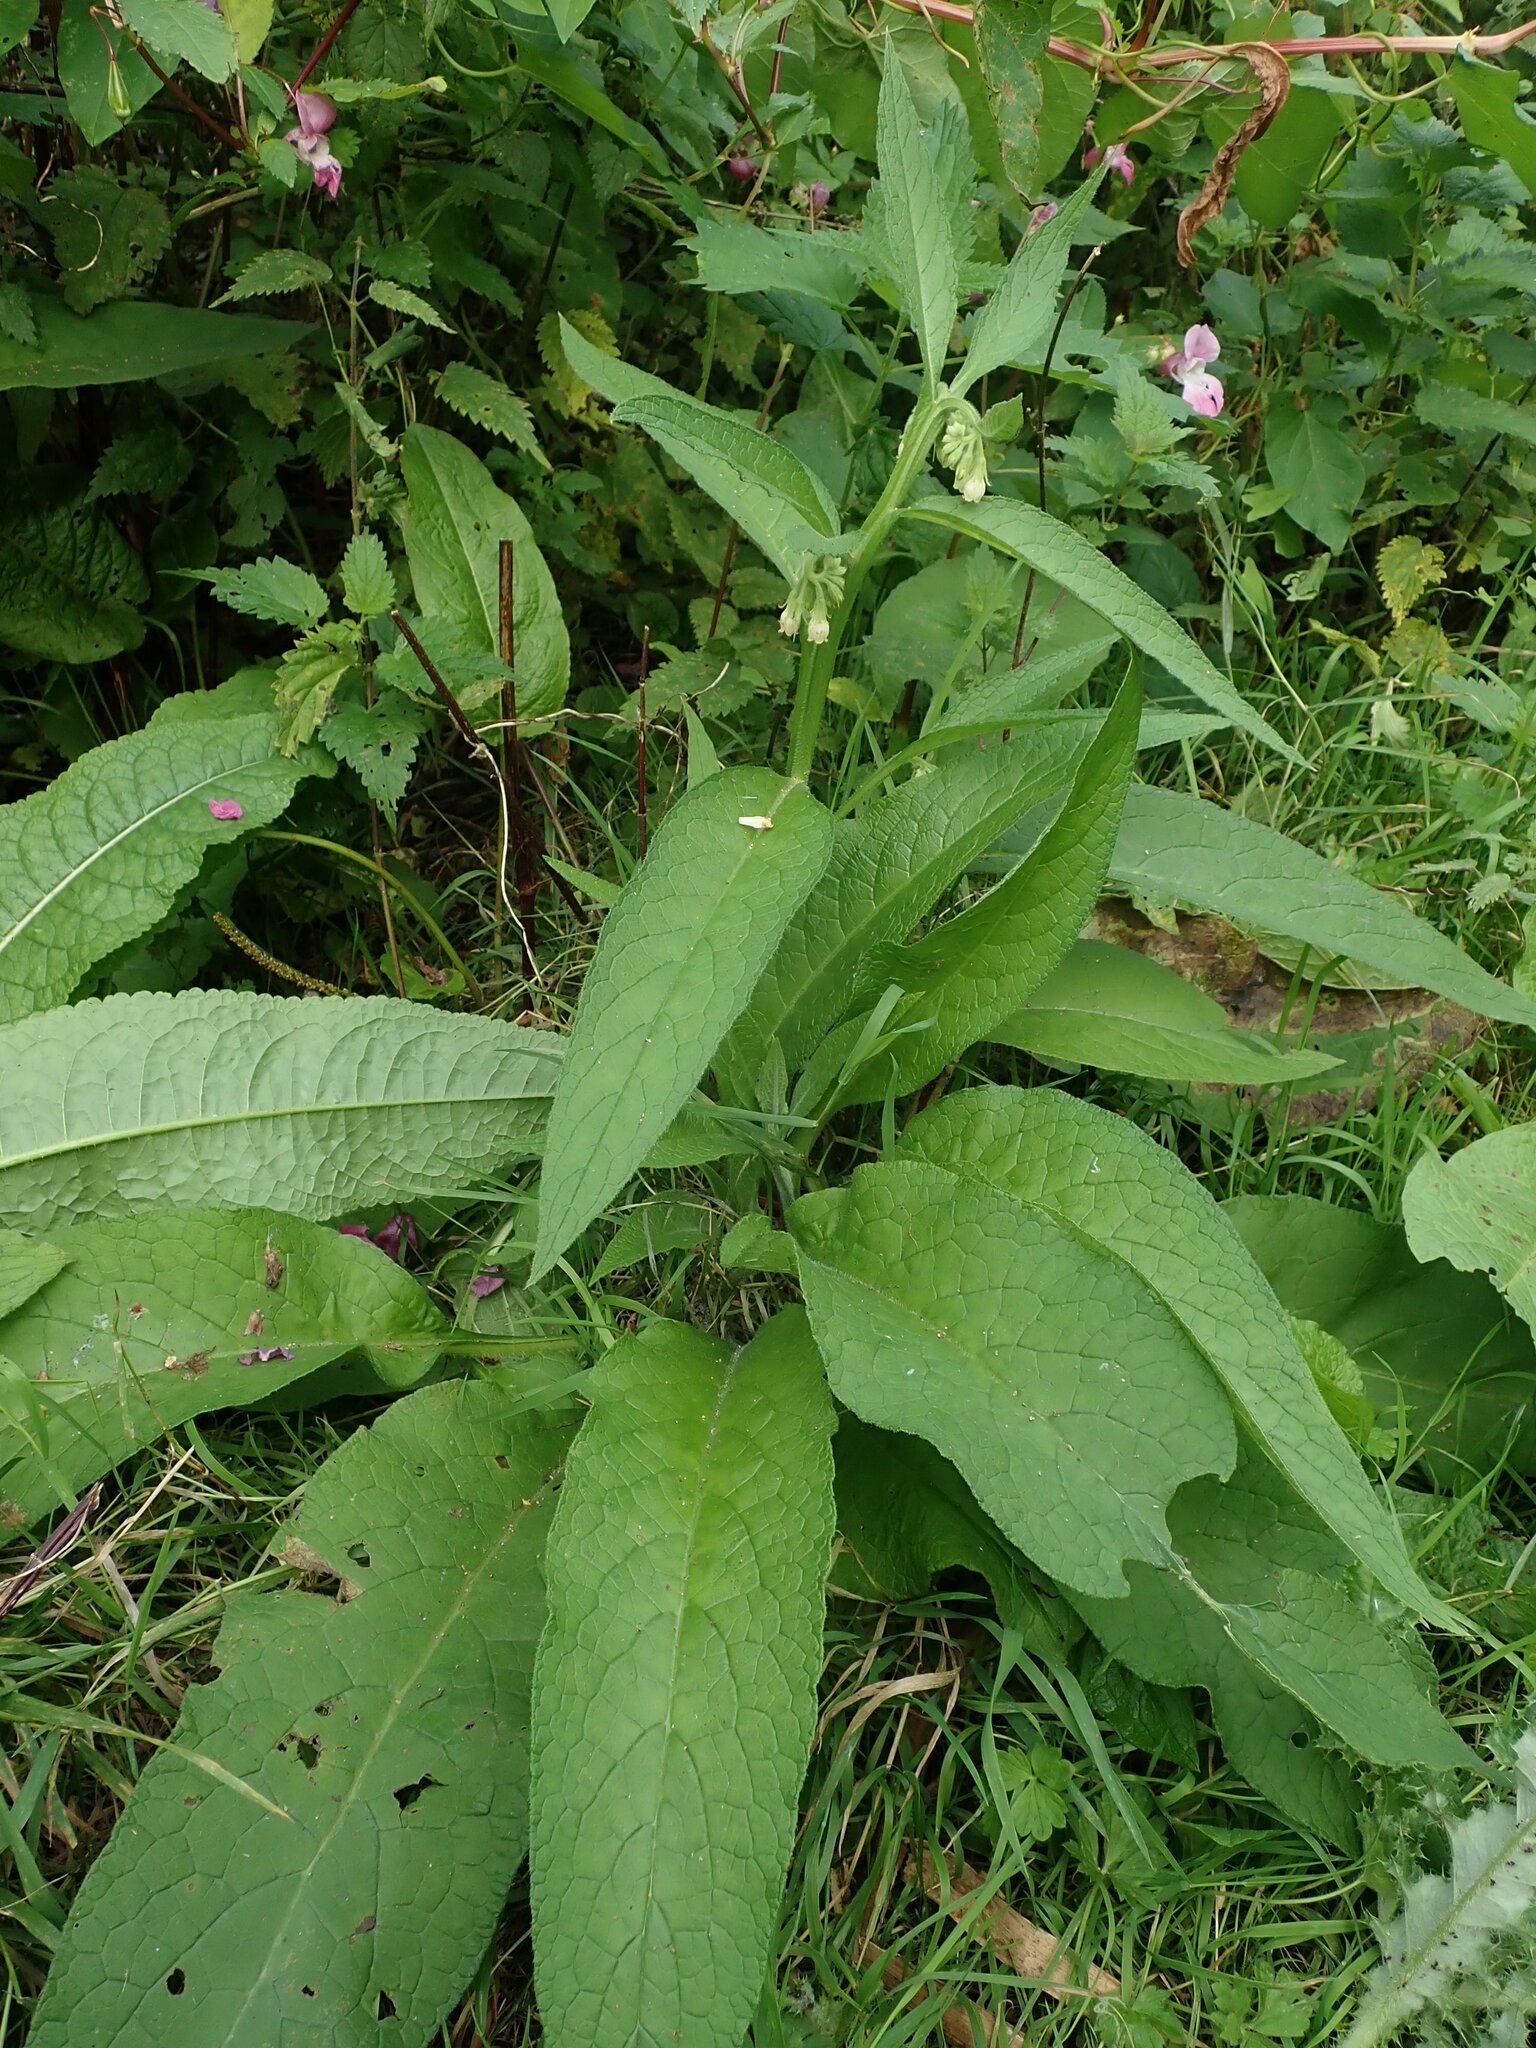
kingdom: Plantae
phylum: Tracheophyta
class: Magnoliopsida
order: Boraginales
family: Boraginaceae
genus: Symphytum
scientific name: Symphytum officinale
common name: Common comfrey
